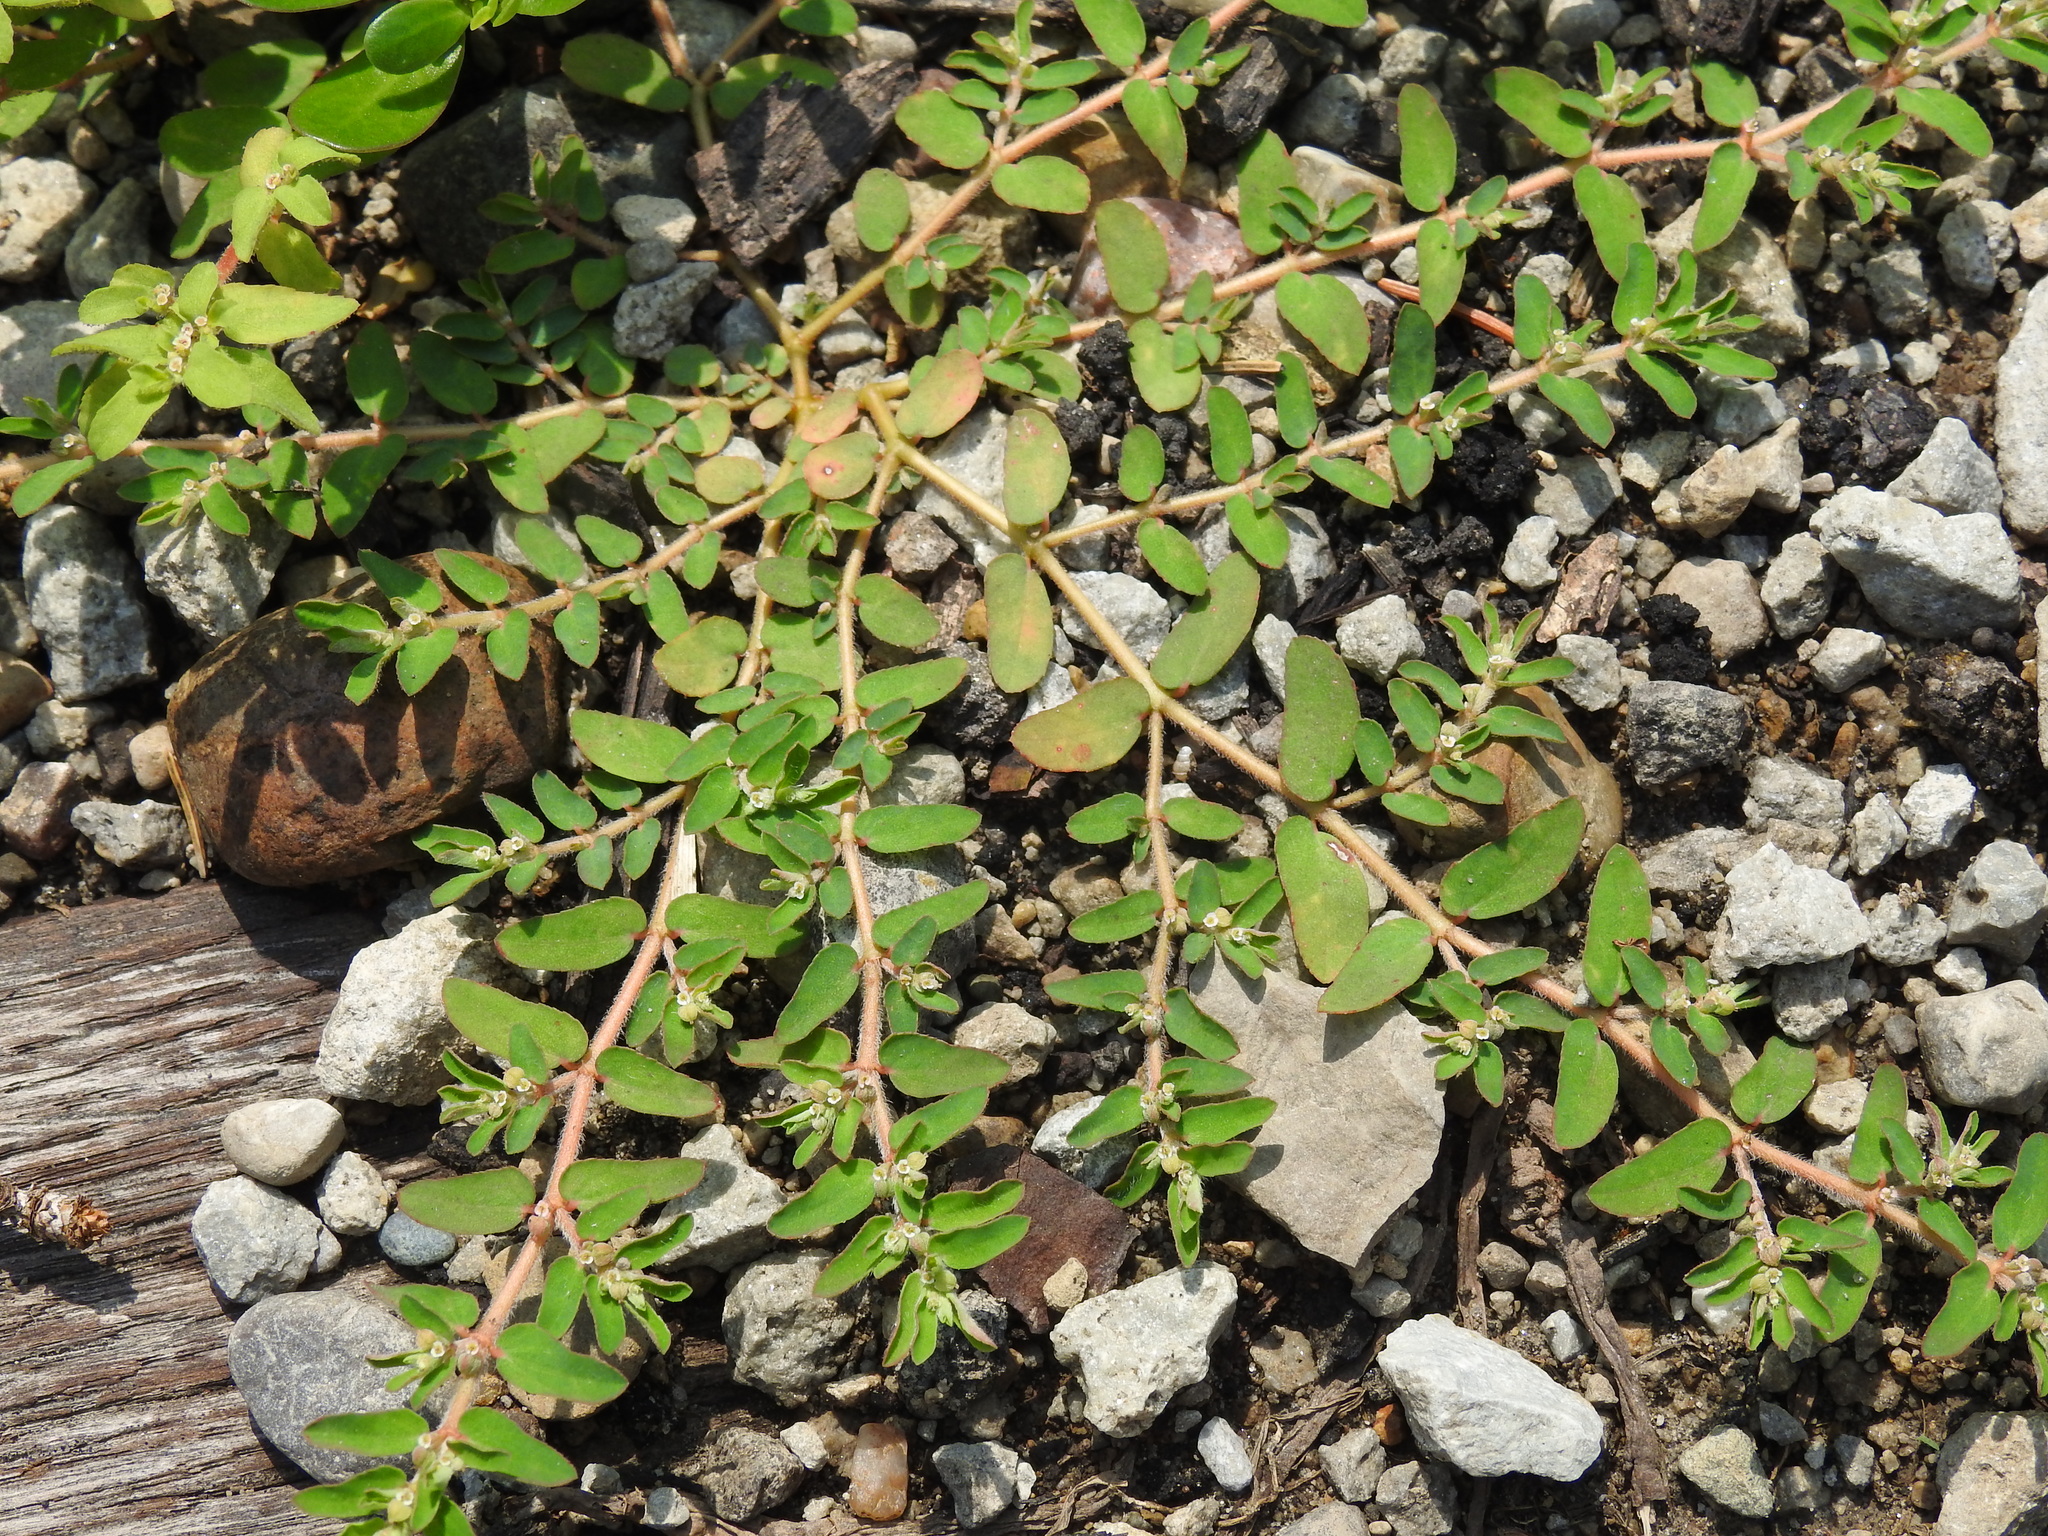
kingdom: Plantae
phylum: Tracheophyta
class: Magnoliopsida
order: Malpighiales
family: Euphorbiaceae
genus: Euphorbia
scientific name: Euphorbia maculata
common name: Spotted spurge
